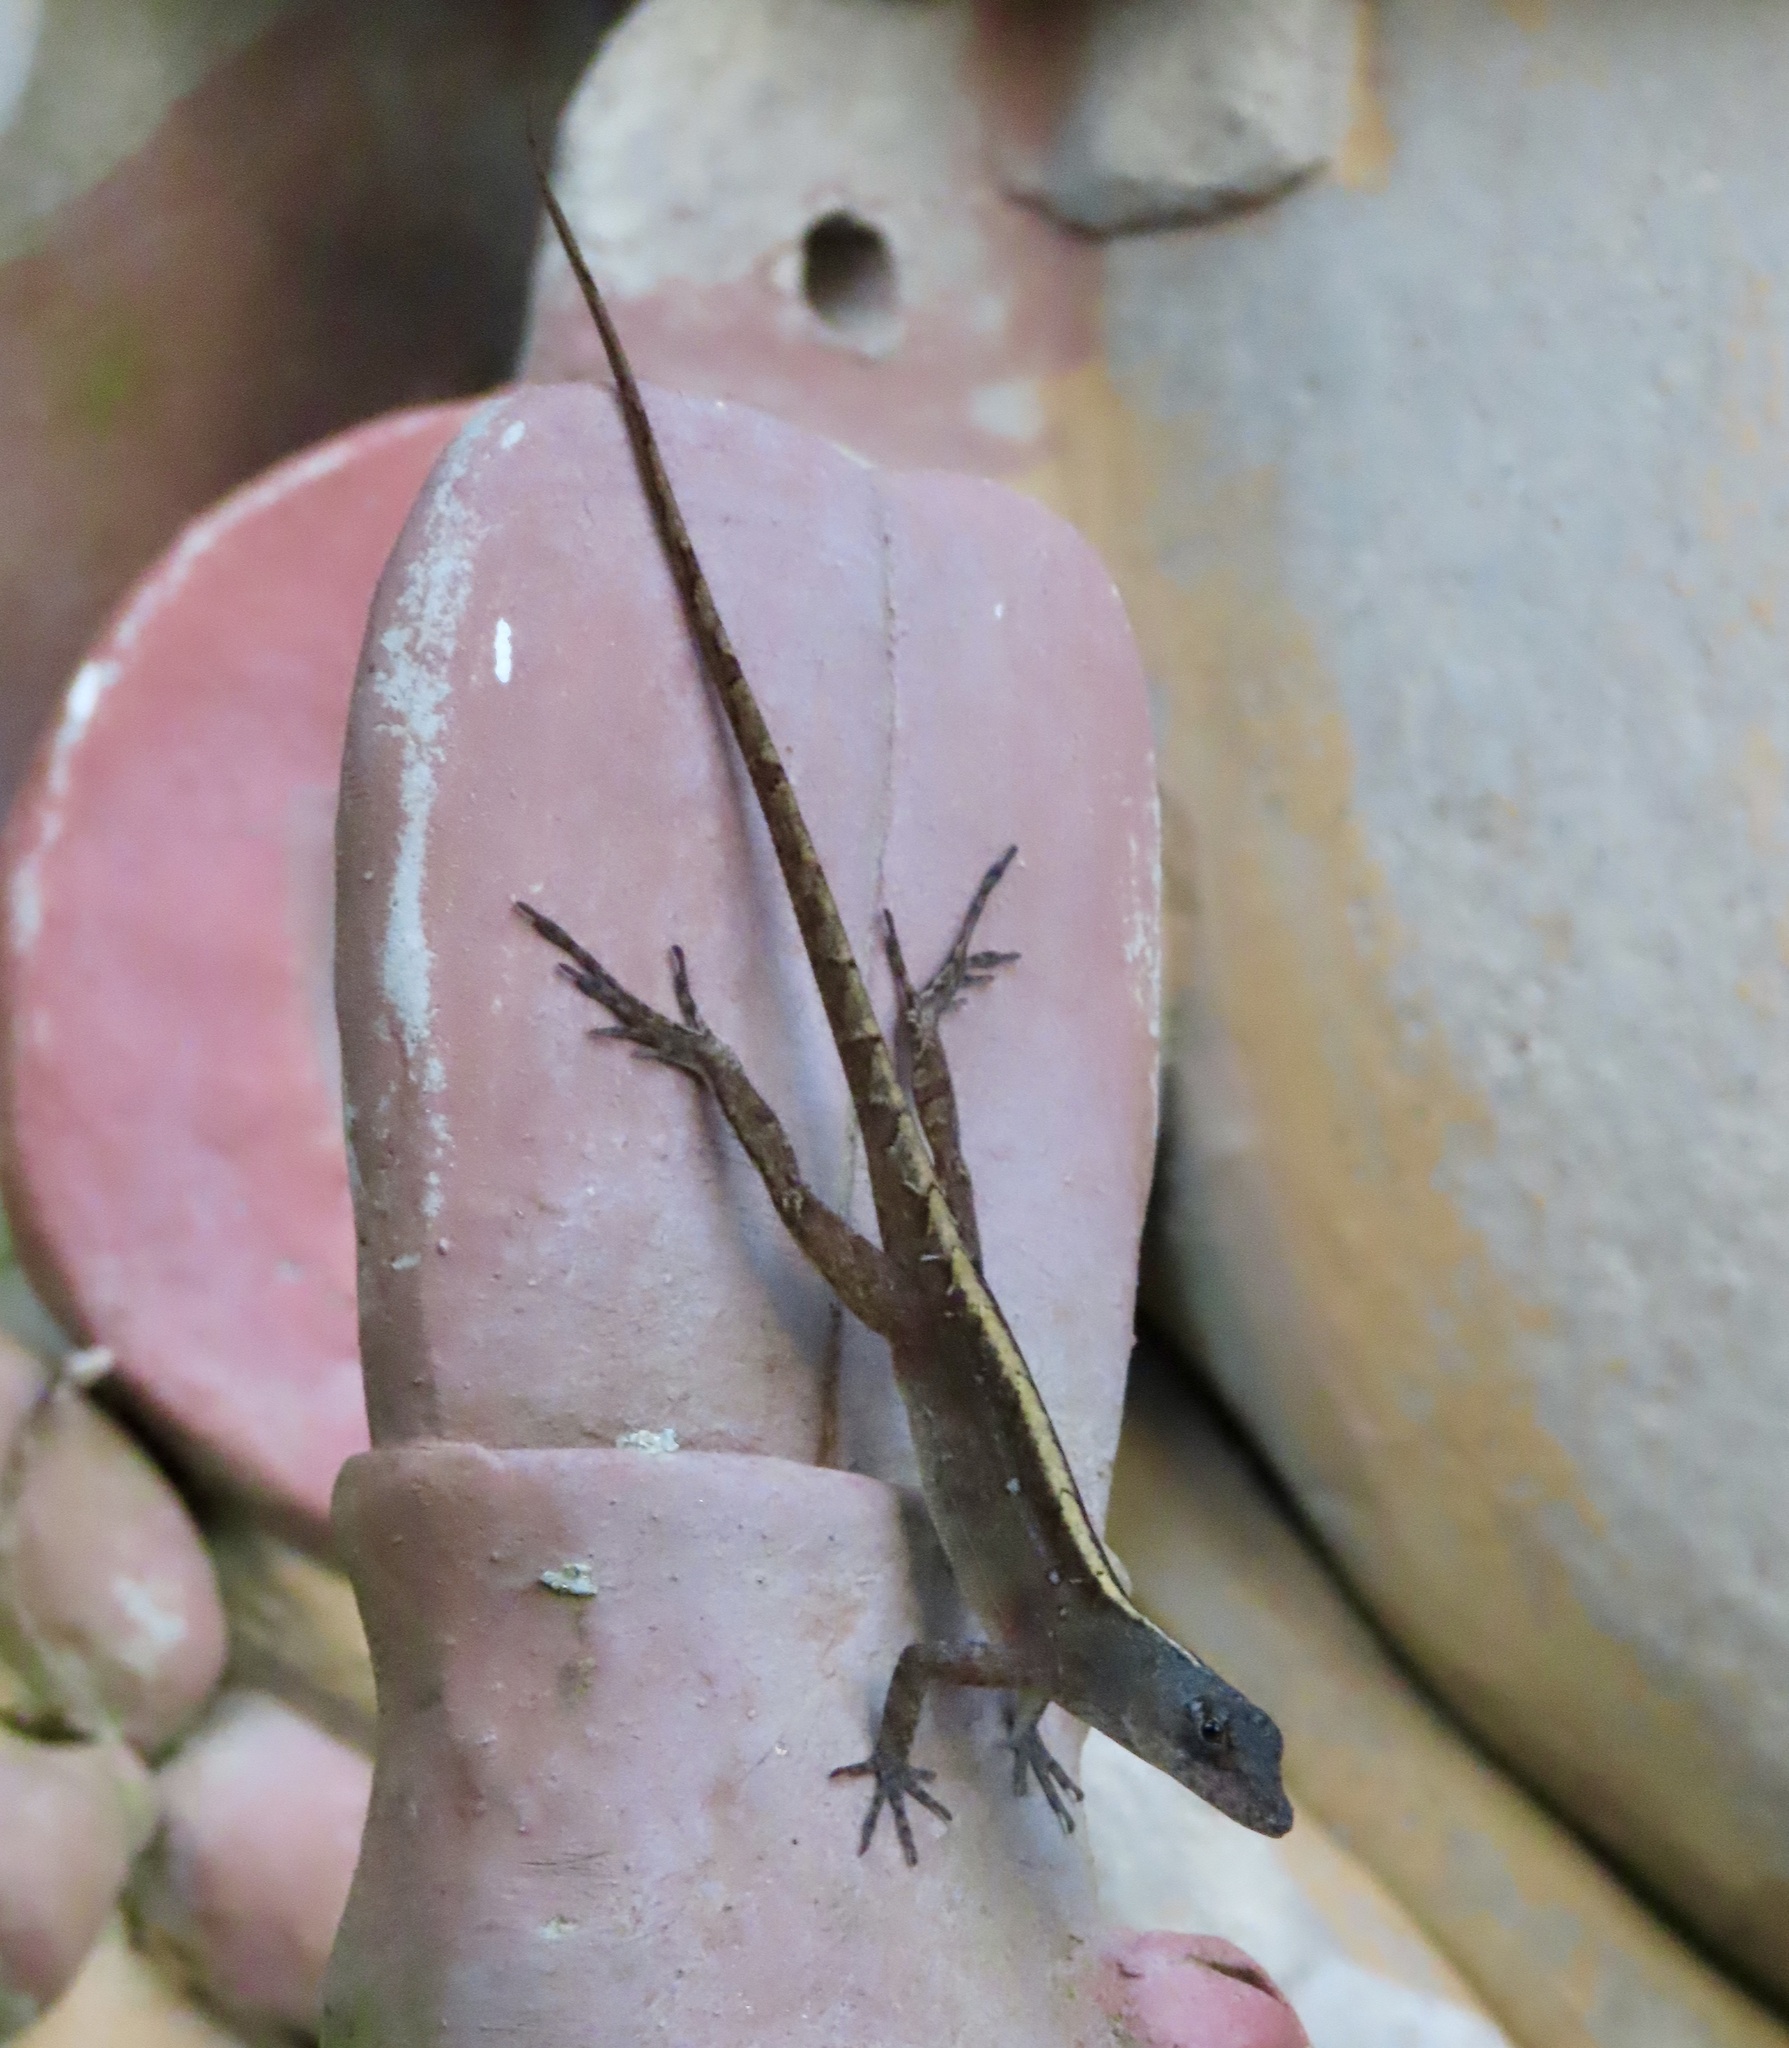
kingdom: Animalia
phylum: Chordata
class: Squamata
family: Dactyloidae
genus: Anolis
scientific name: Anolis sagrei
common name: Brown anole
